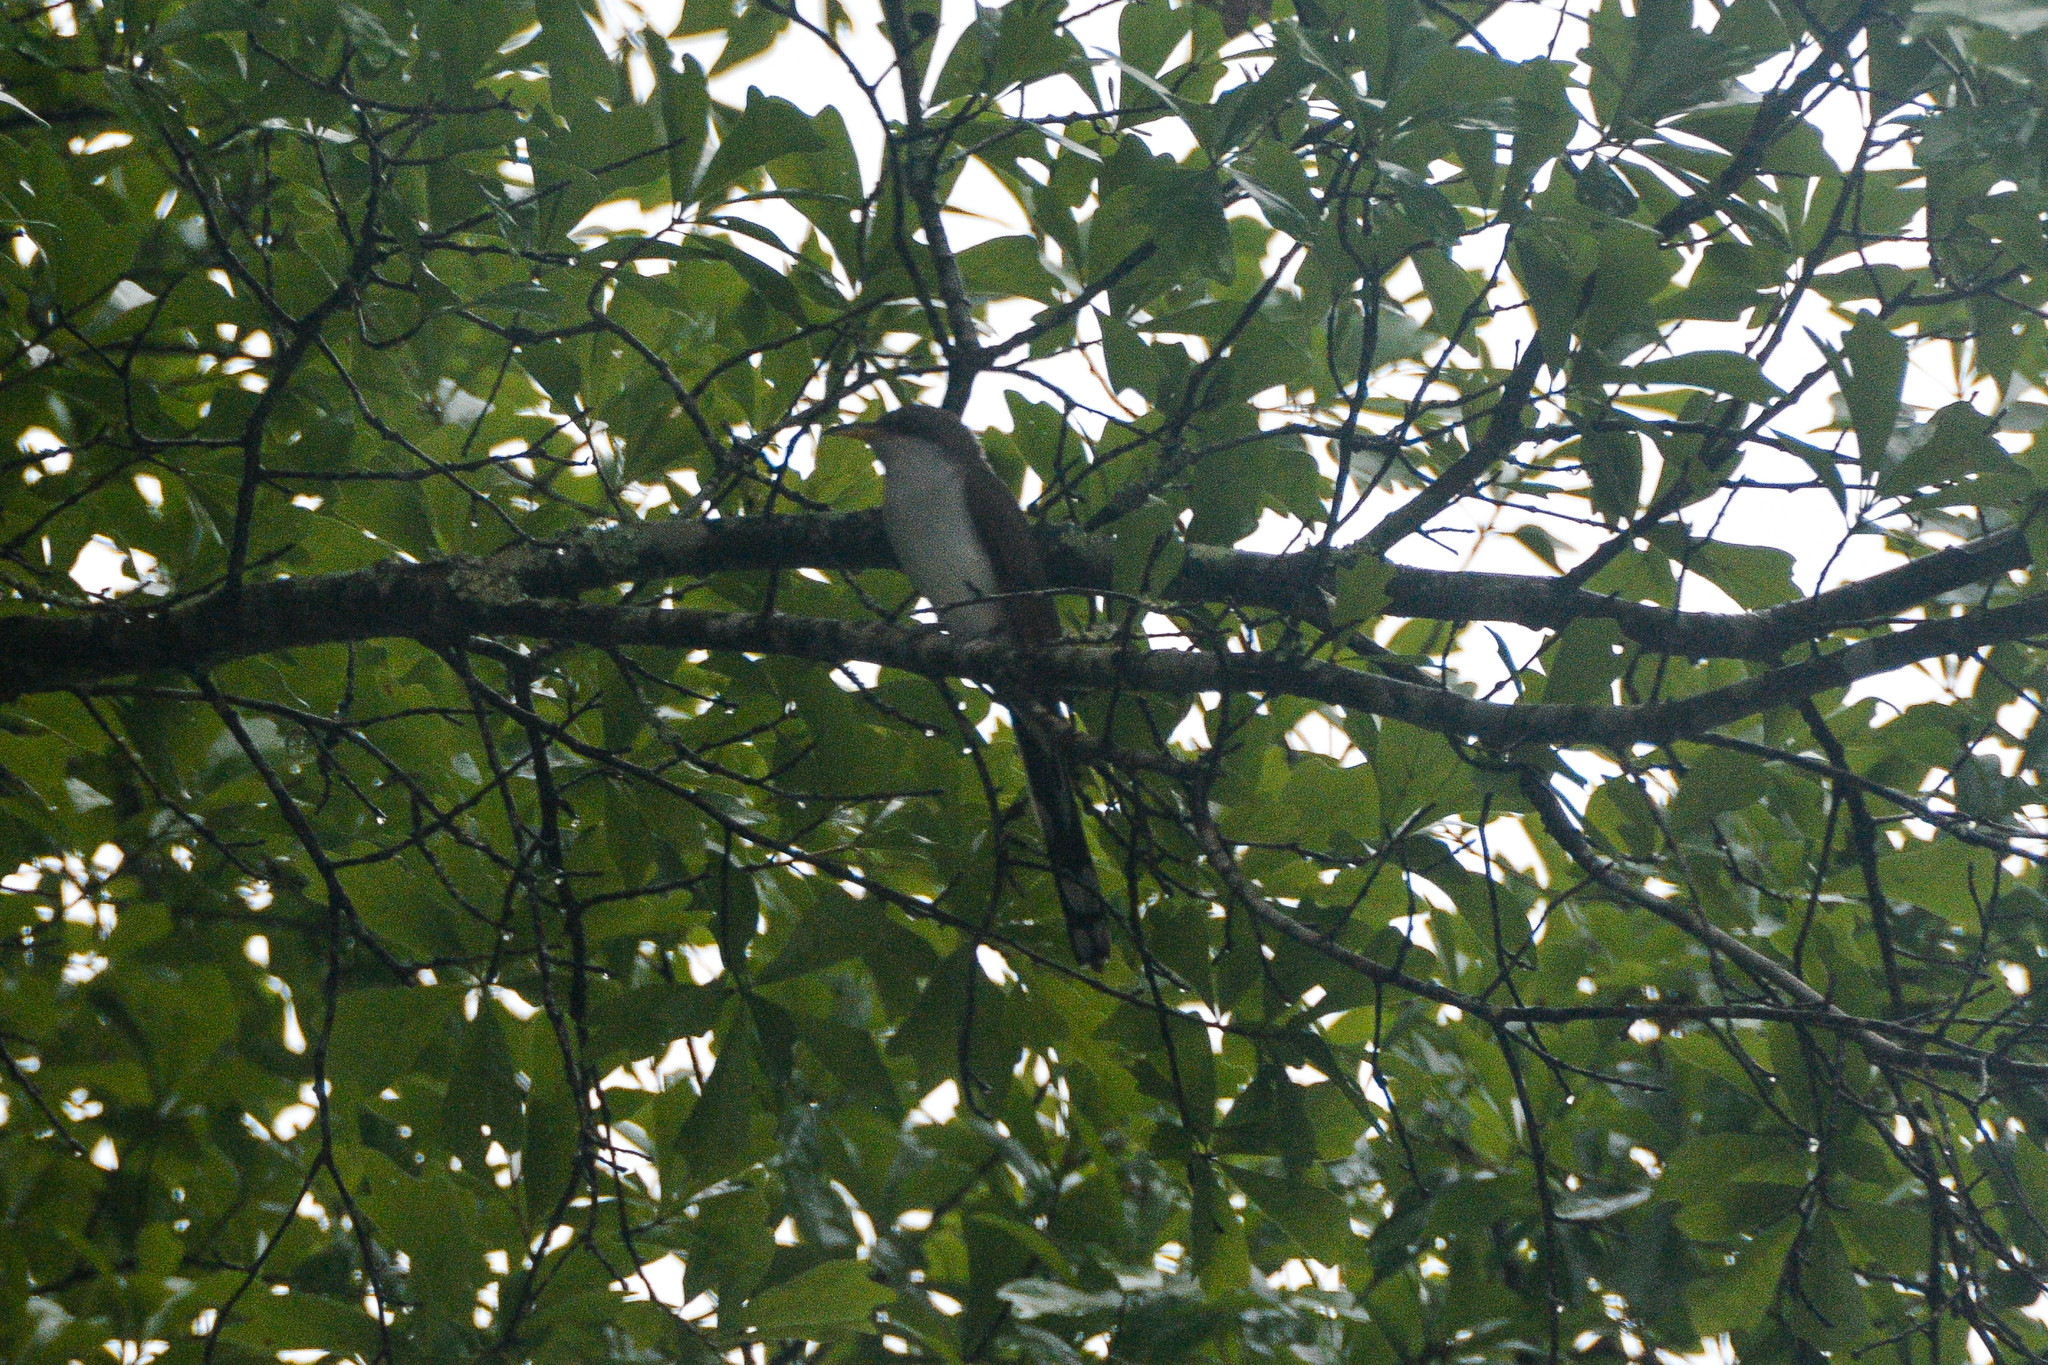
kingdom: Animalia
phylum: Chordata
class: Aves
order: Cuculiformes
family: Cuculidae
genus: Coccyzus
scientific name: Coccyzus americanus
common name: Yellow-billed cuckoo
